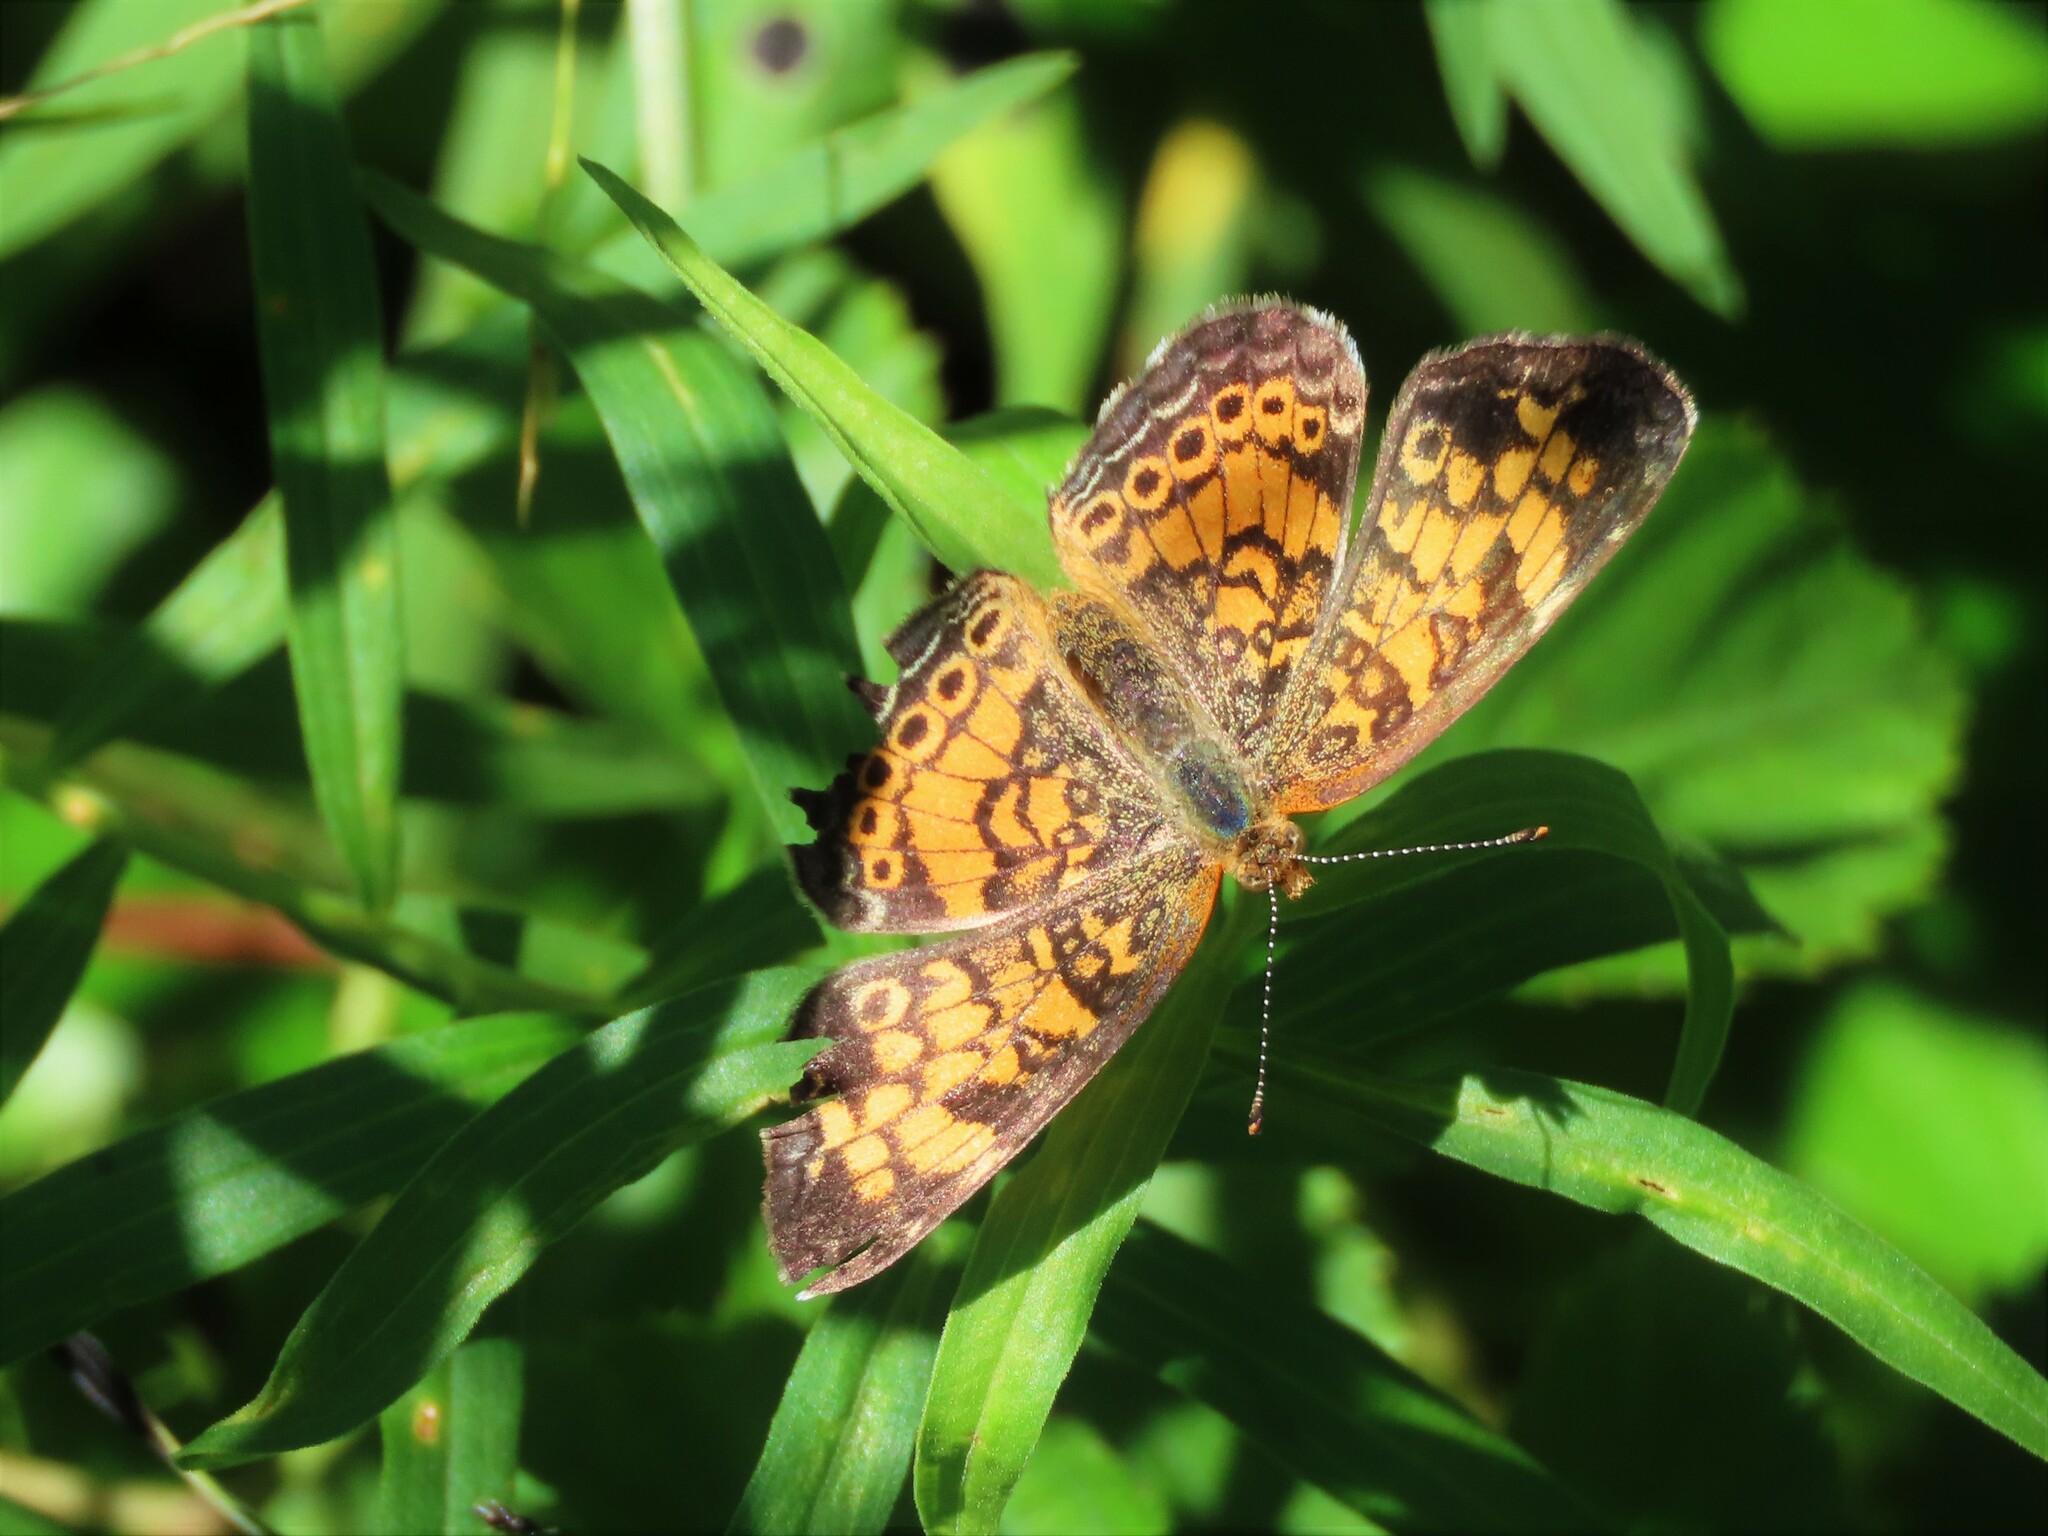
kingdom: Animalia
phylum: Arthropoda
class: Insecta
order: Lepidoptera
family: Nymphalidae
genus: Phyciodes
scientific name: Phyciodes tharos
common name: Pearl crescent
